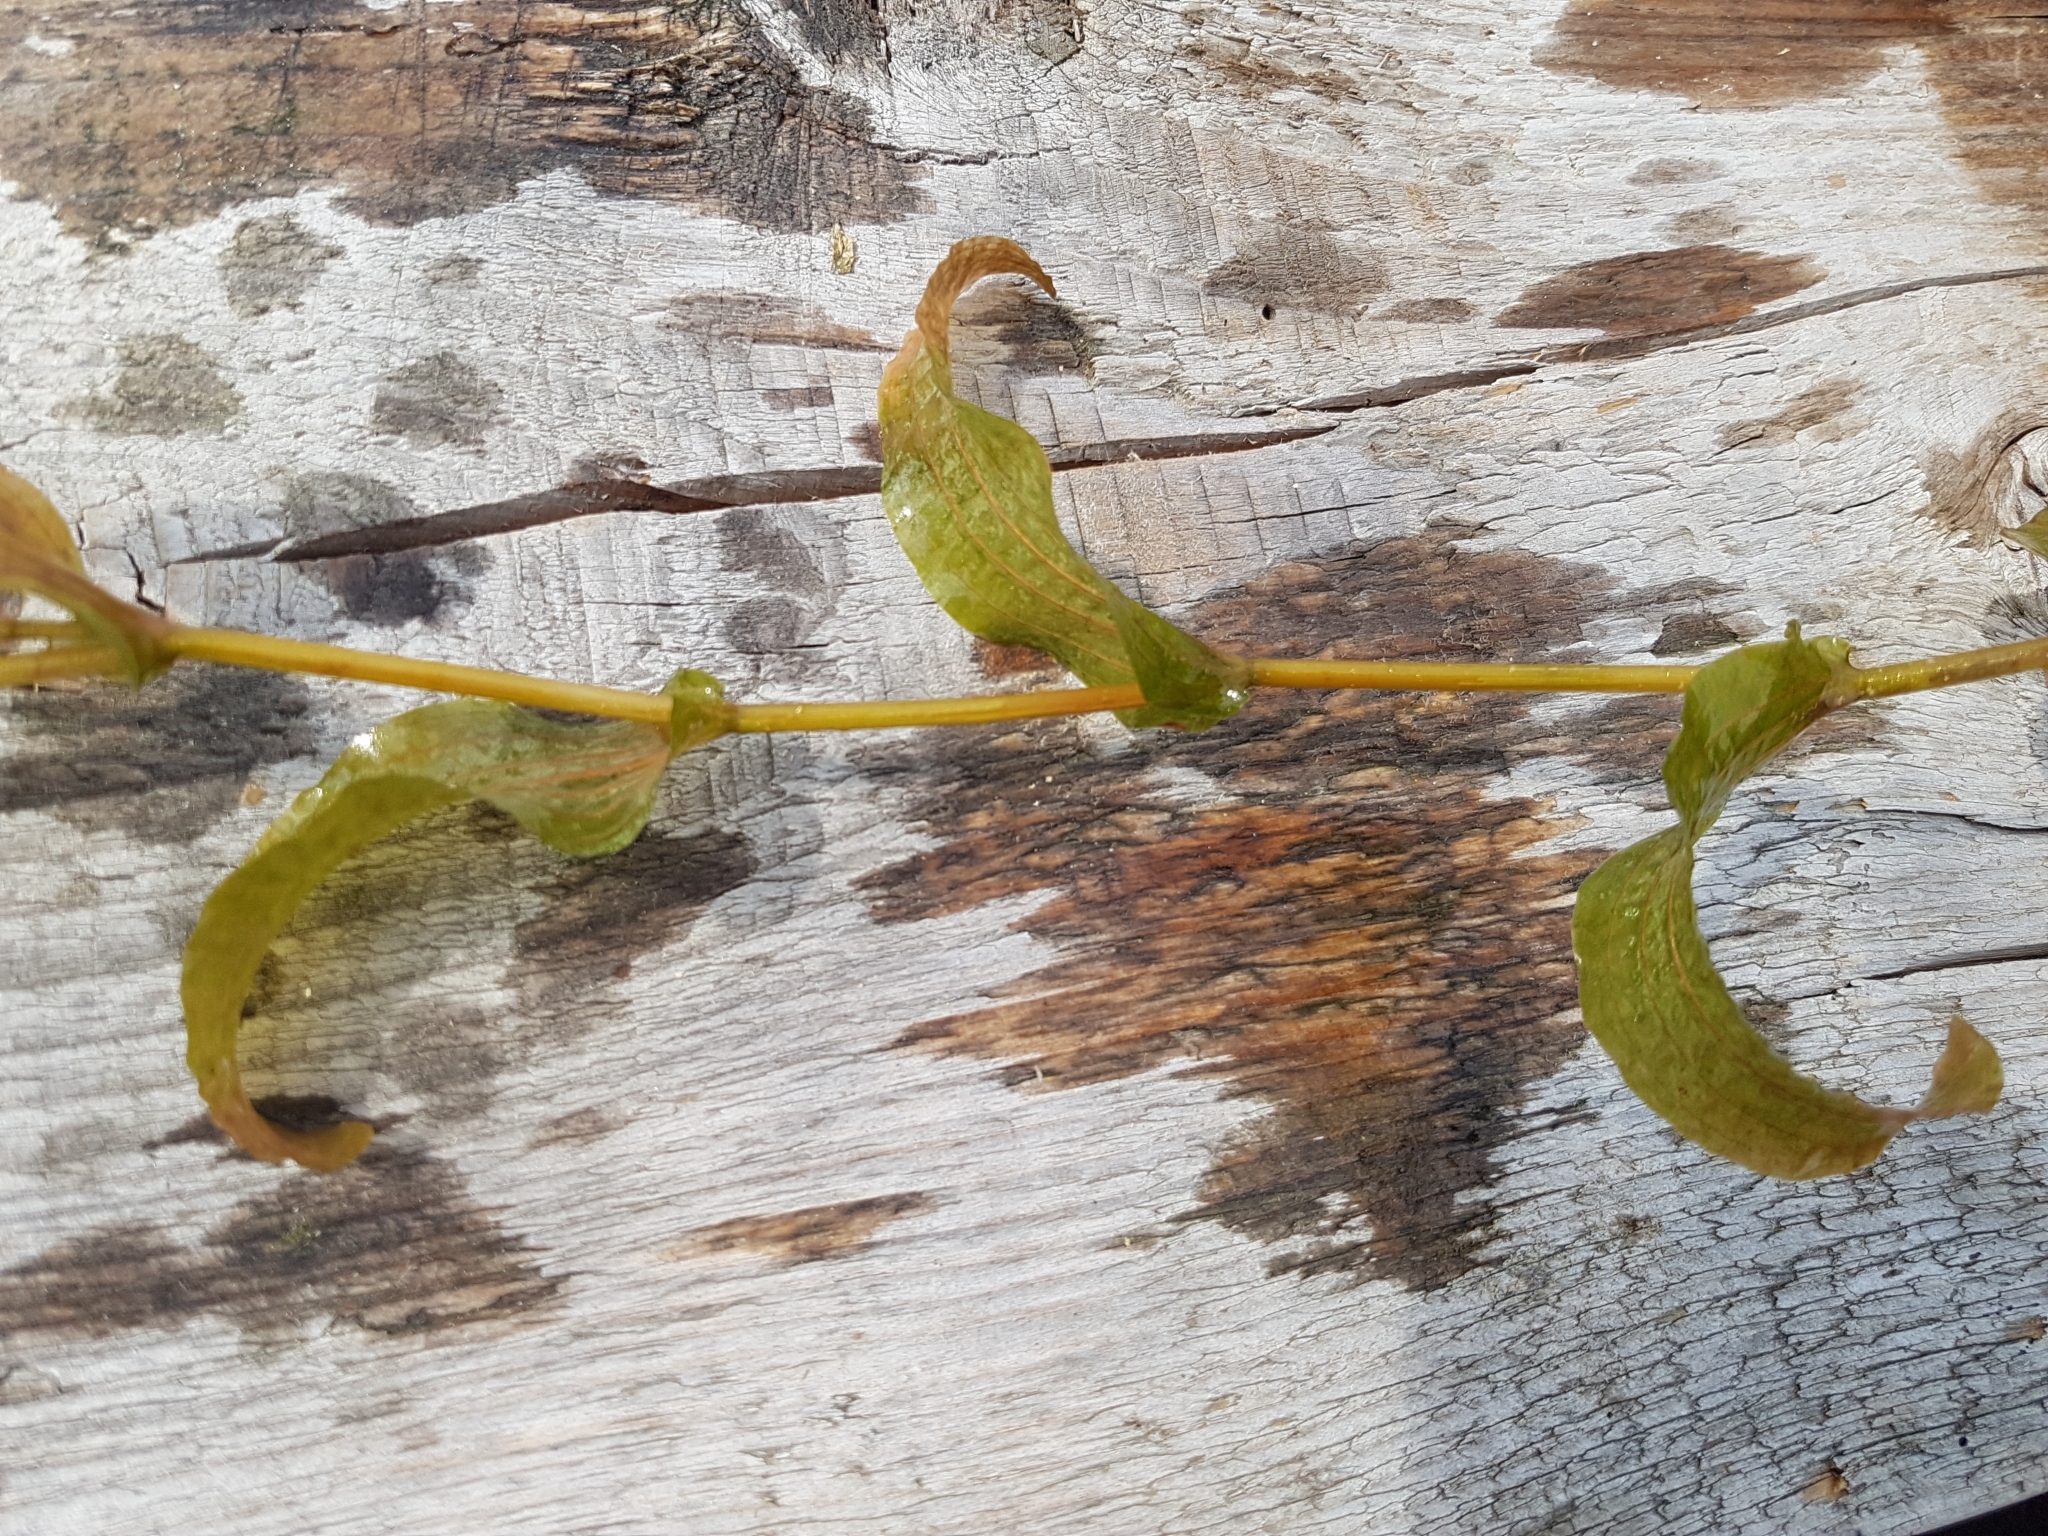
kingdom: Plantae
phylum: Tracheophyta
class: Liliopsida
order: Alismatales
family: Potamogetonaceae
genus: Potamogeton
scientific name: Potamogeton perfoliatus
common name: Perfoliate pondweed
